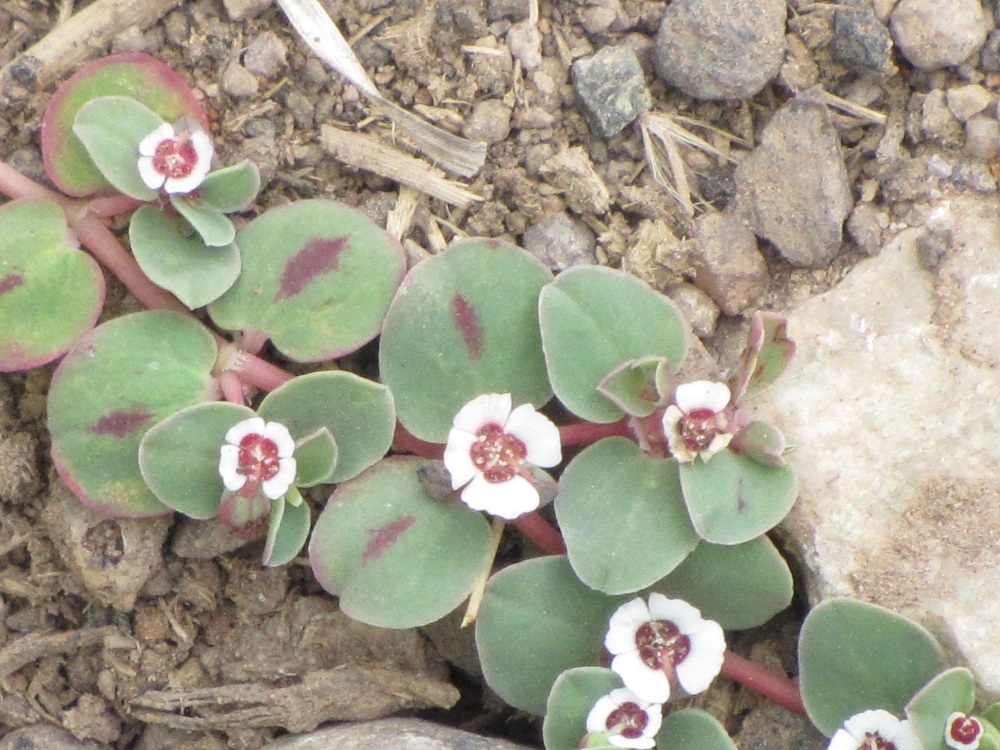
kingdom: Plantae
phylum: Tracheophyta
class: Magnoliopsida
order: Malpighiales
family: Euphorbiaceae
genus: Euphorbia
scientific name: Euphorbia albomarginata
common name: Whitemargin sandmat
